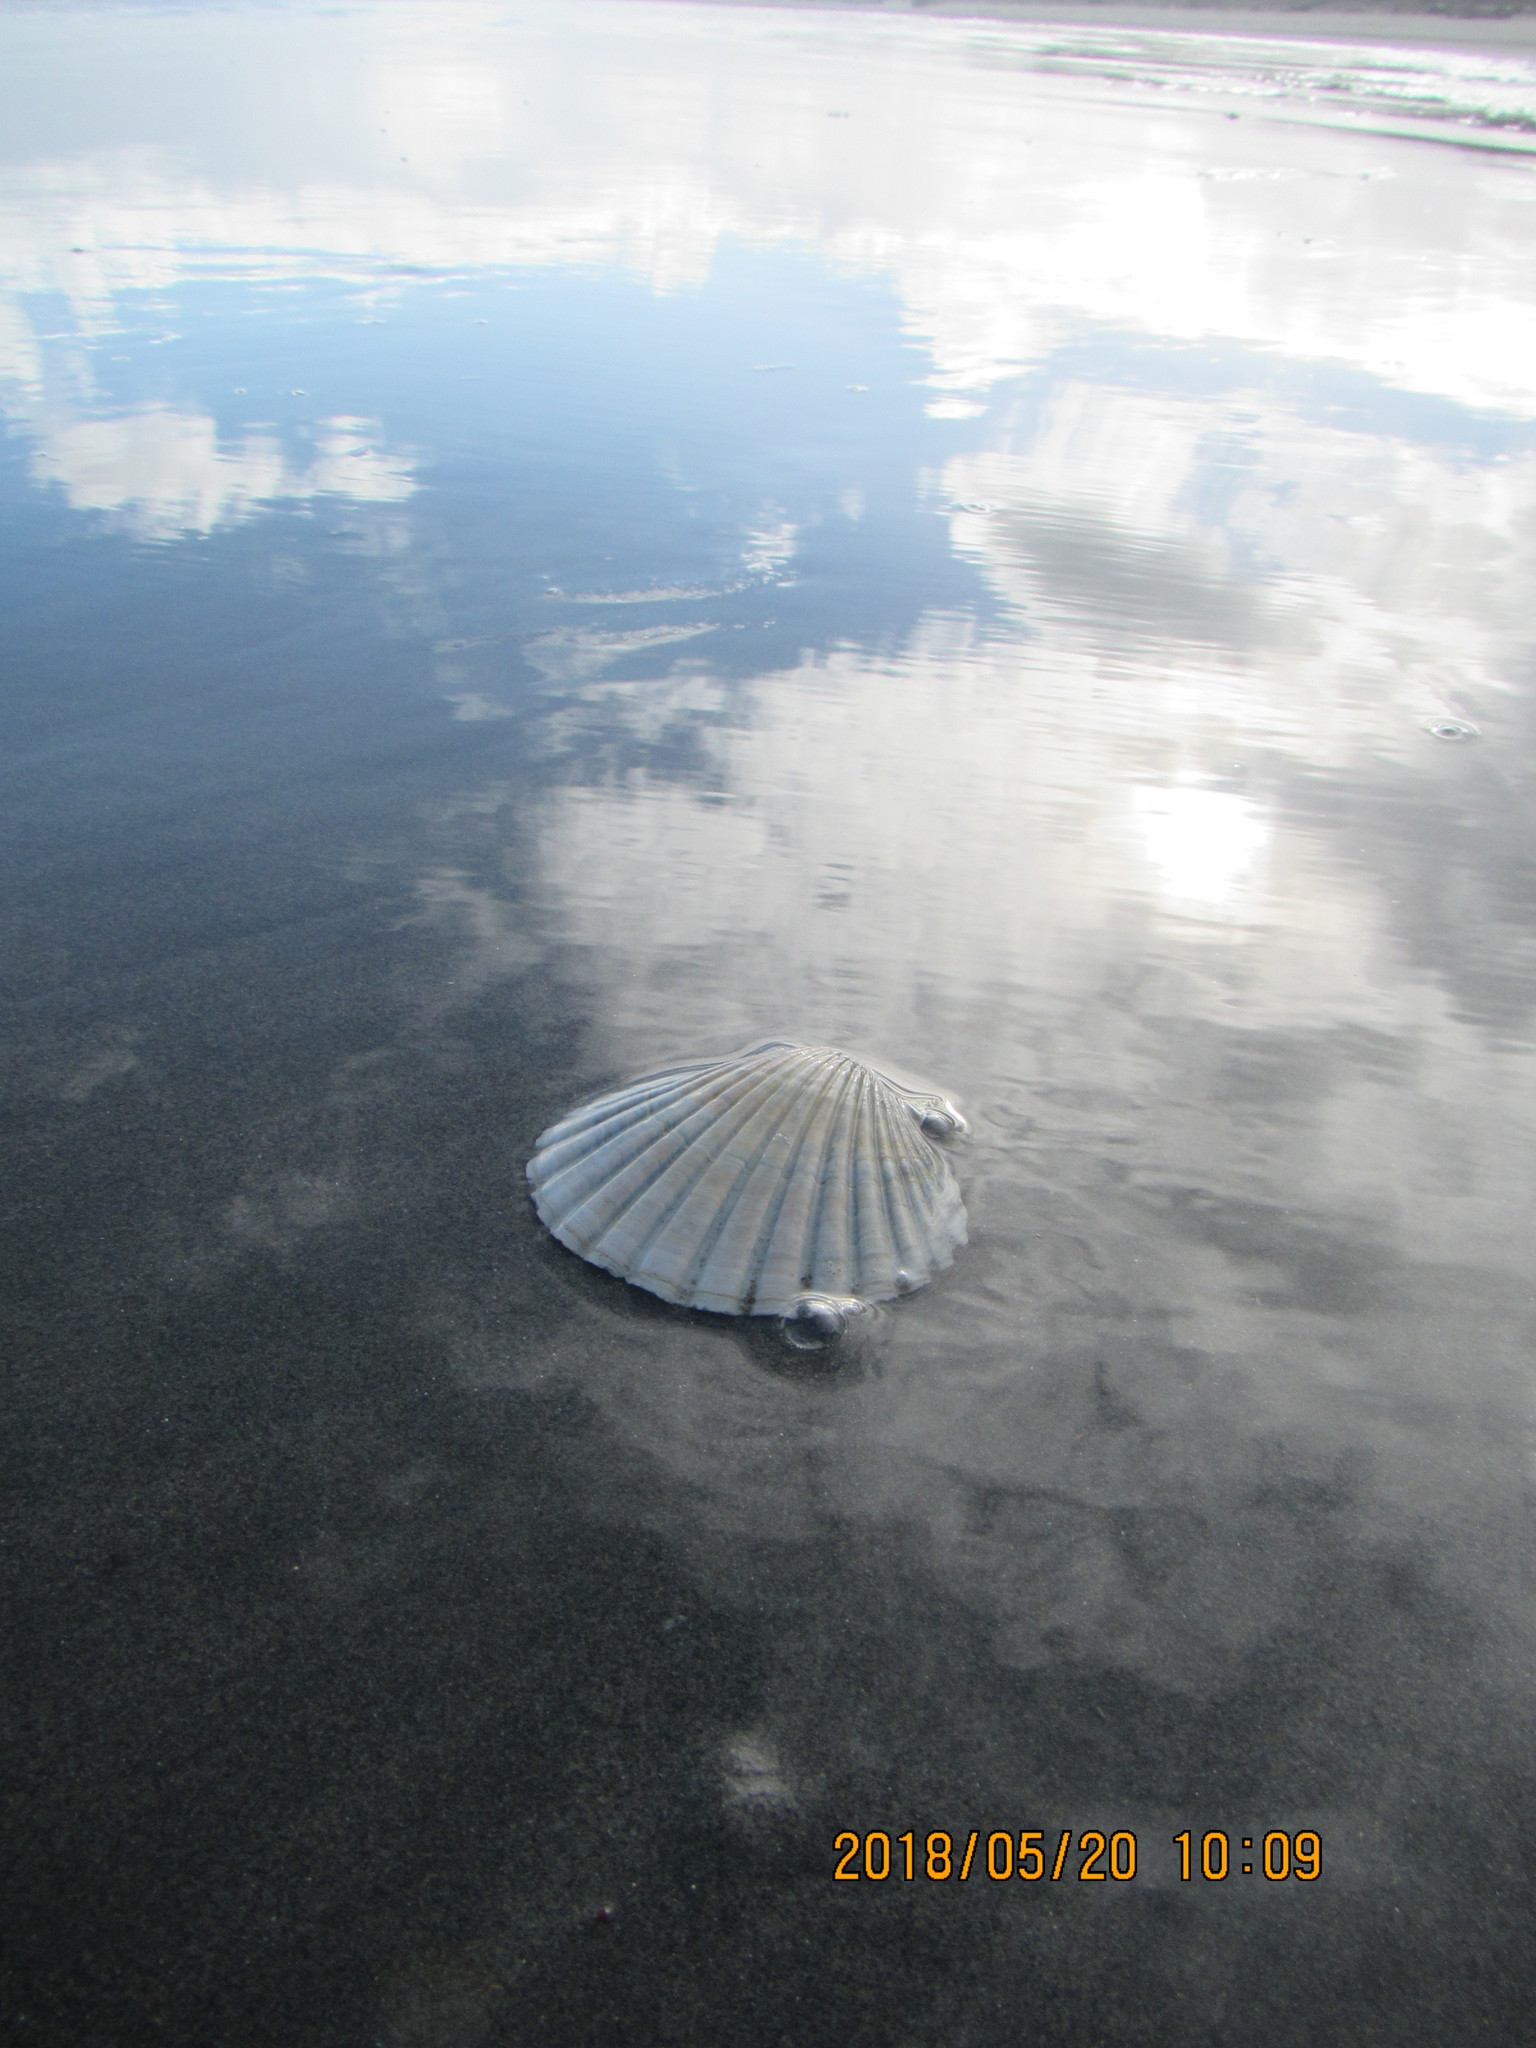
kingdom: Animalia
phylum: Mollusca
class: Bivalvia
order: Pectinida
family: Pectinidae
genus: Pecten
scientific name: Pecten novaezelandiae
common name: New zealand scallop
